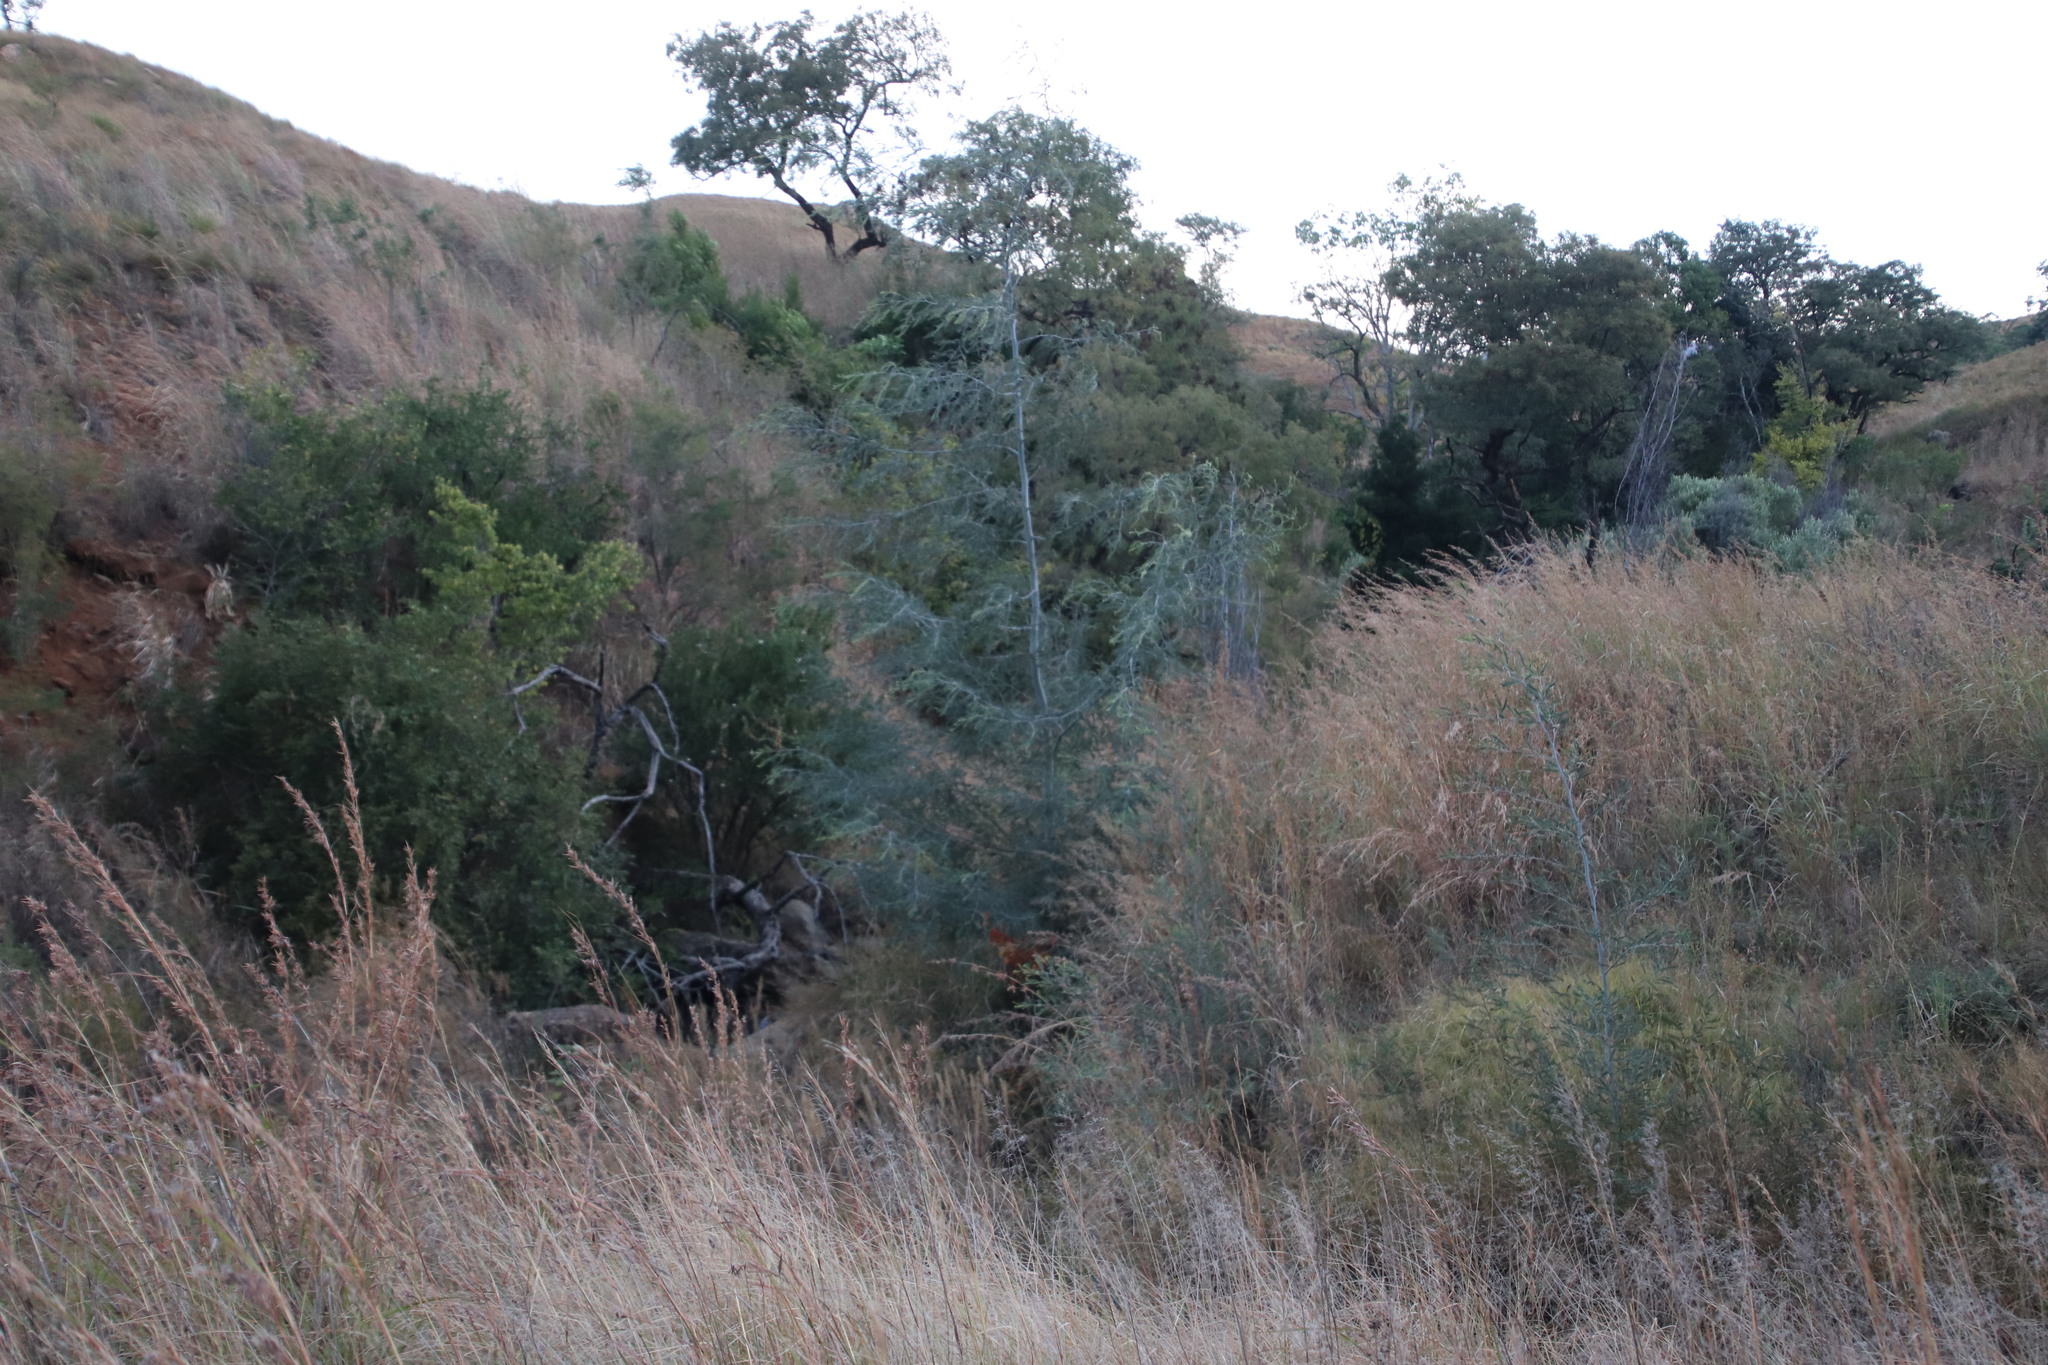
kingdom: Plantae
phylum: Tracheophyta
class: Magnoliopsida
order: Fabales
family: Fabaceae
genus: Acacia
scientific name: Acacia dealbata
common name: Silver wattle
